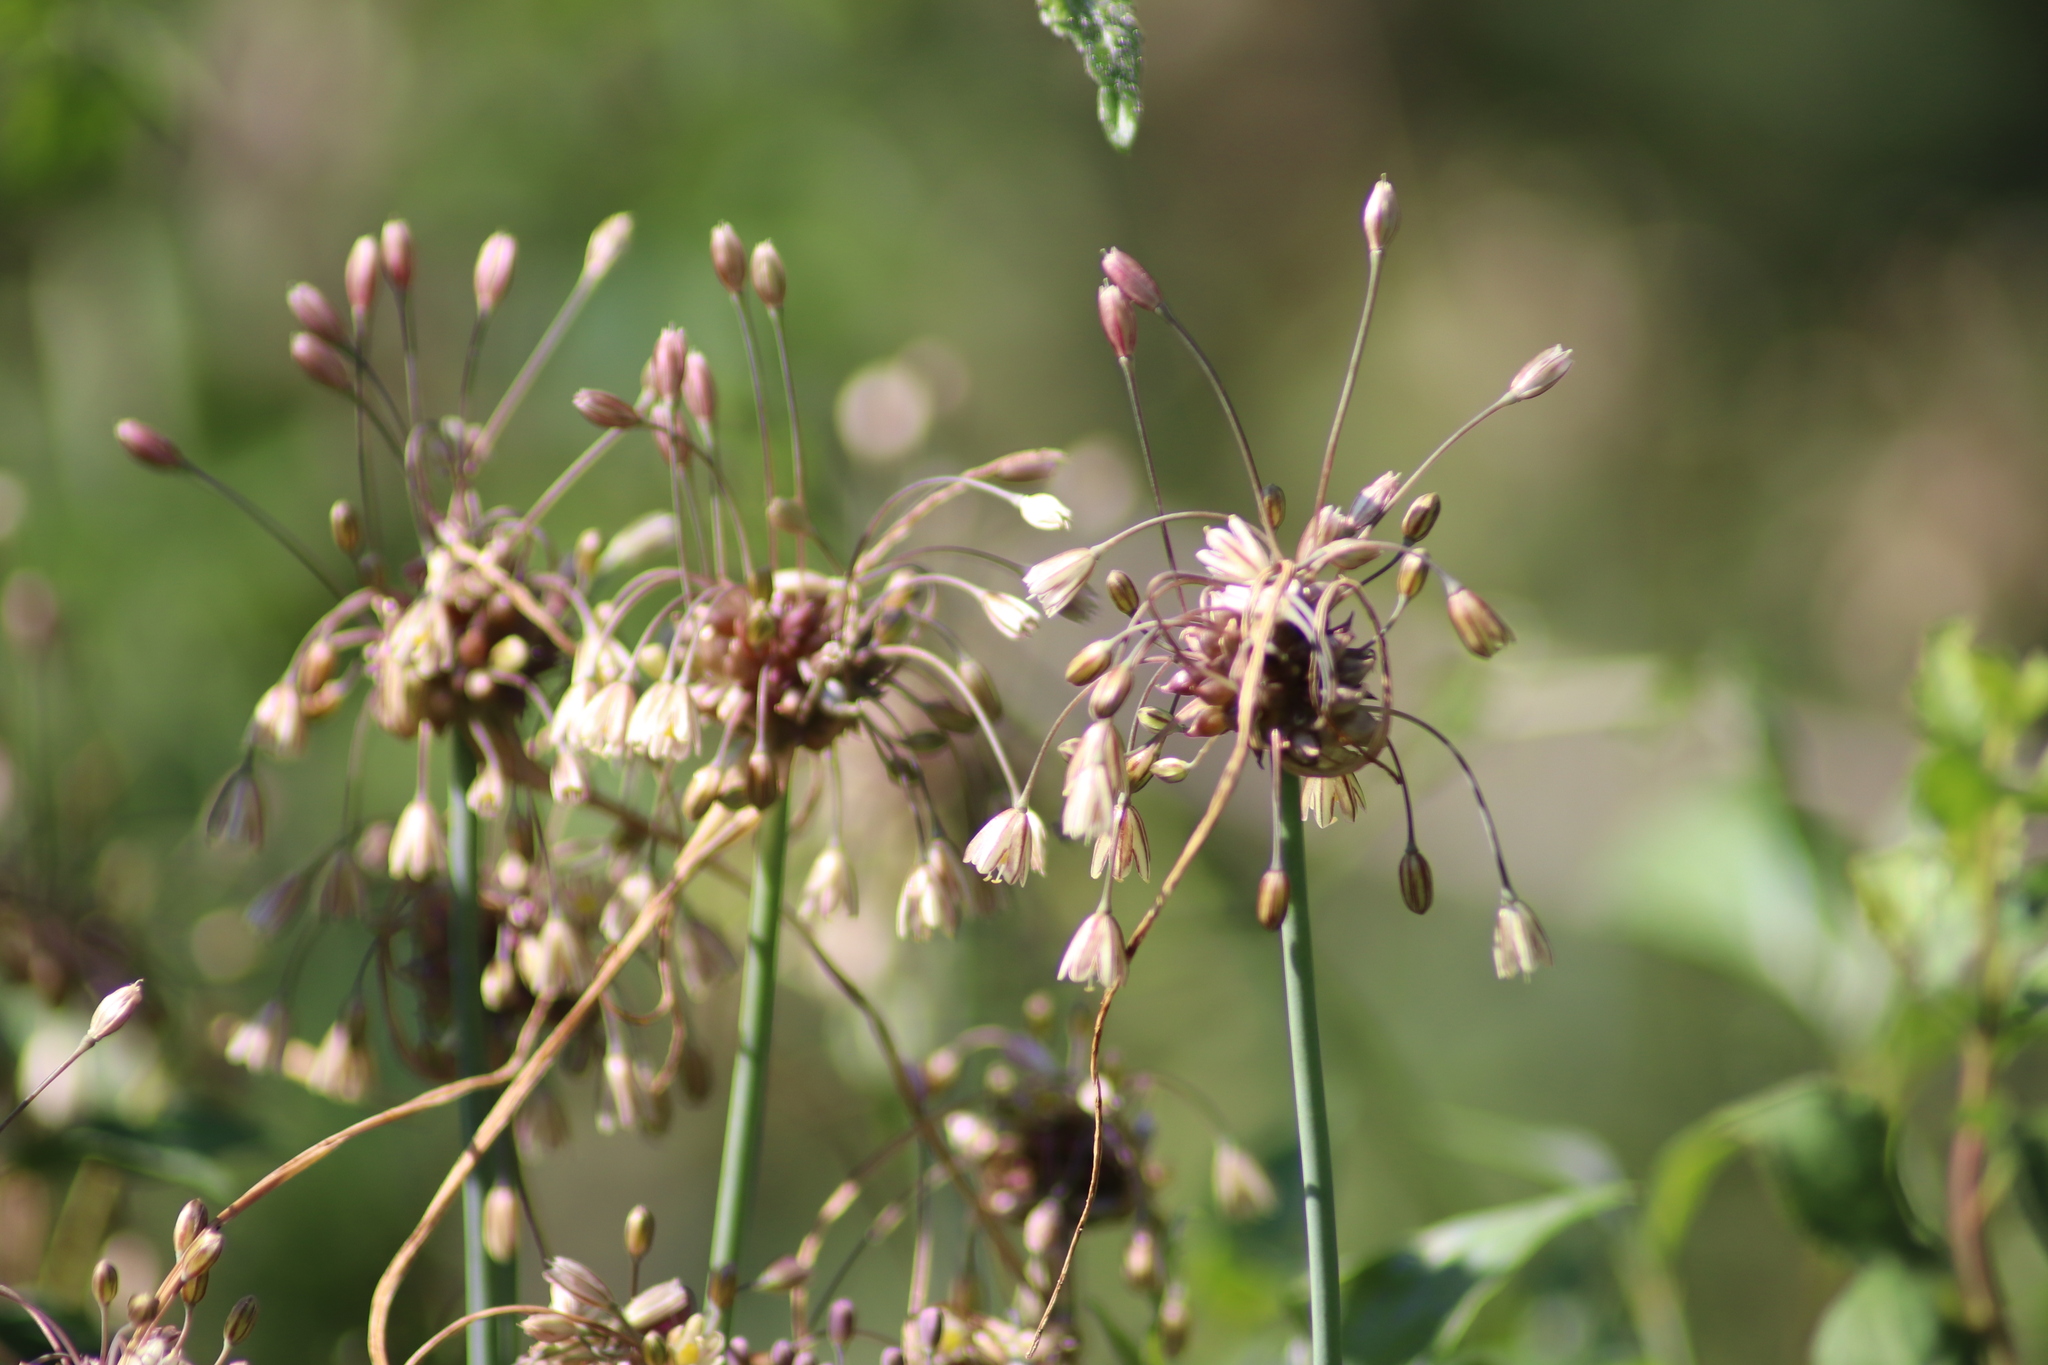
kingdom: Plantae
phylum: Tracheophyta
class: Liliopsida
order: Asparagales
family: Amaryllidaceae
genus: Allium
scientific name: Allium oleraceum
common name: Field garlic
